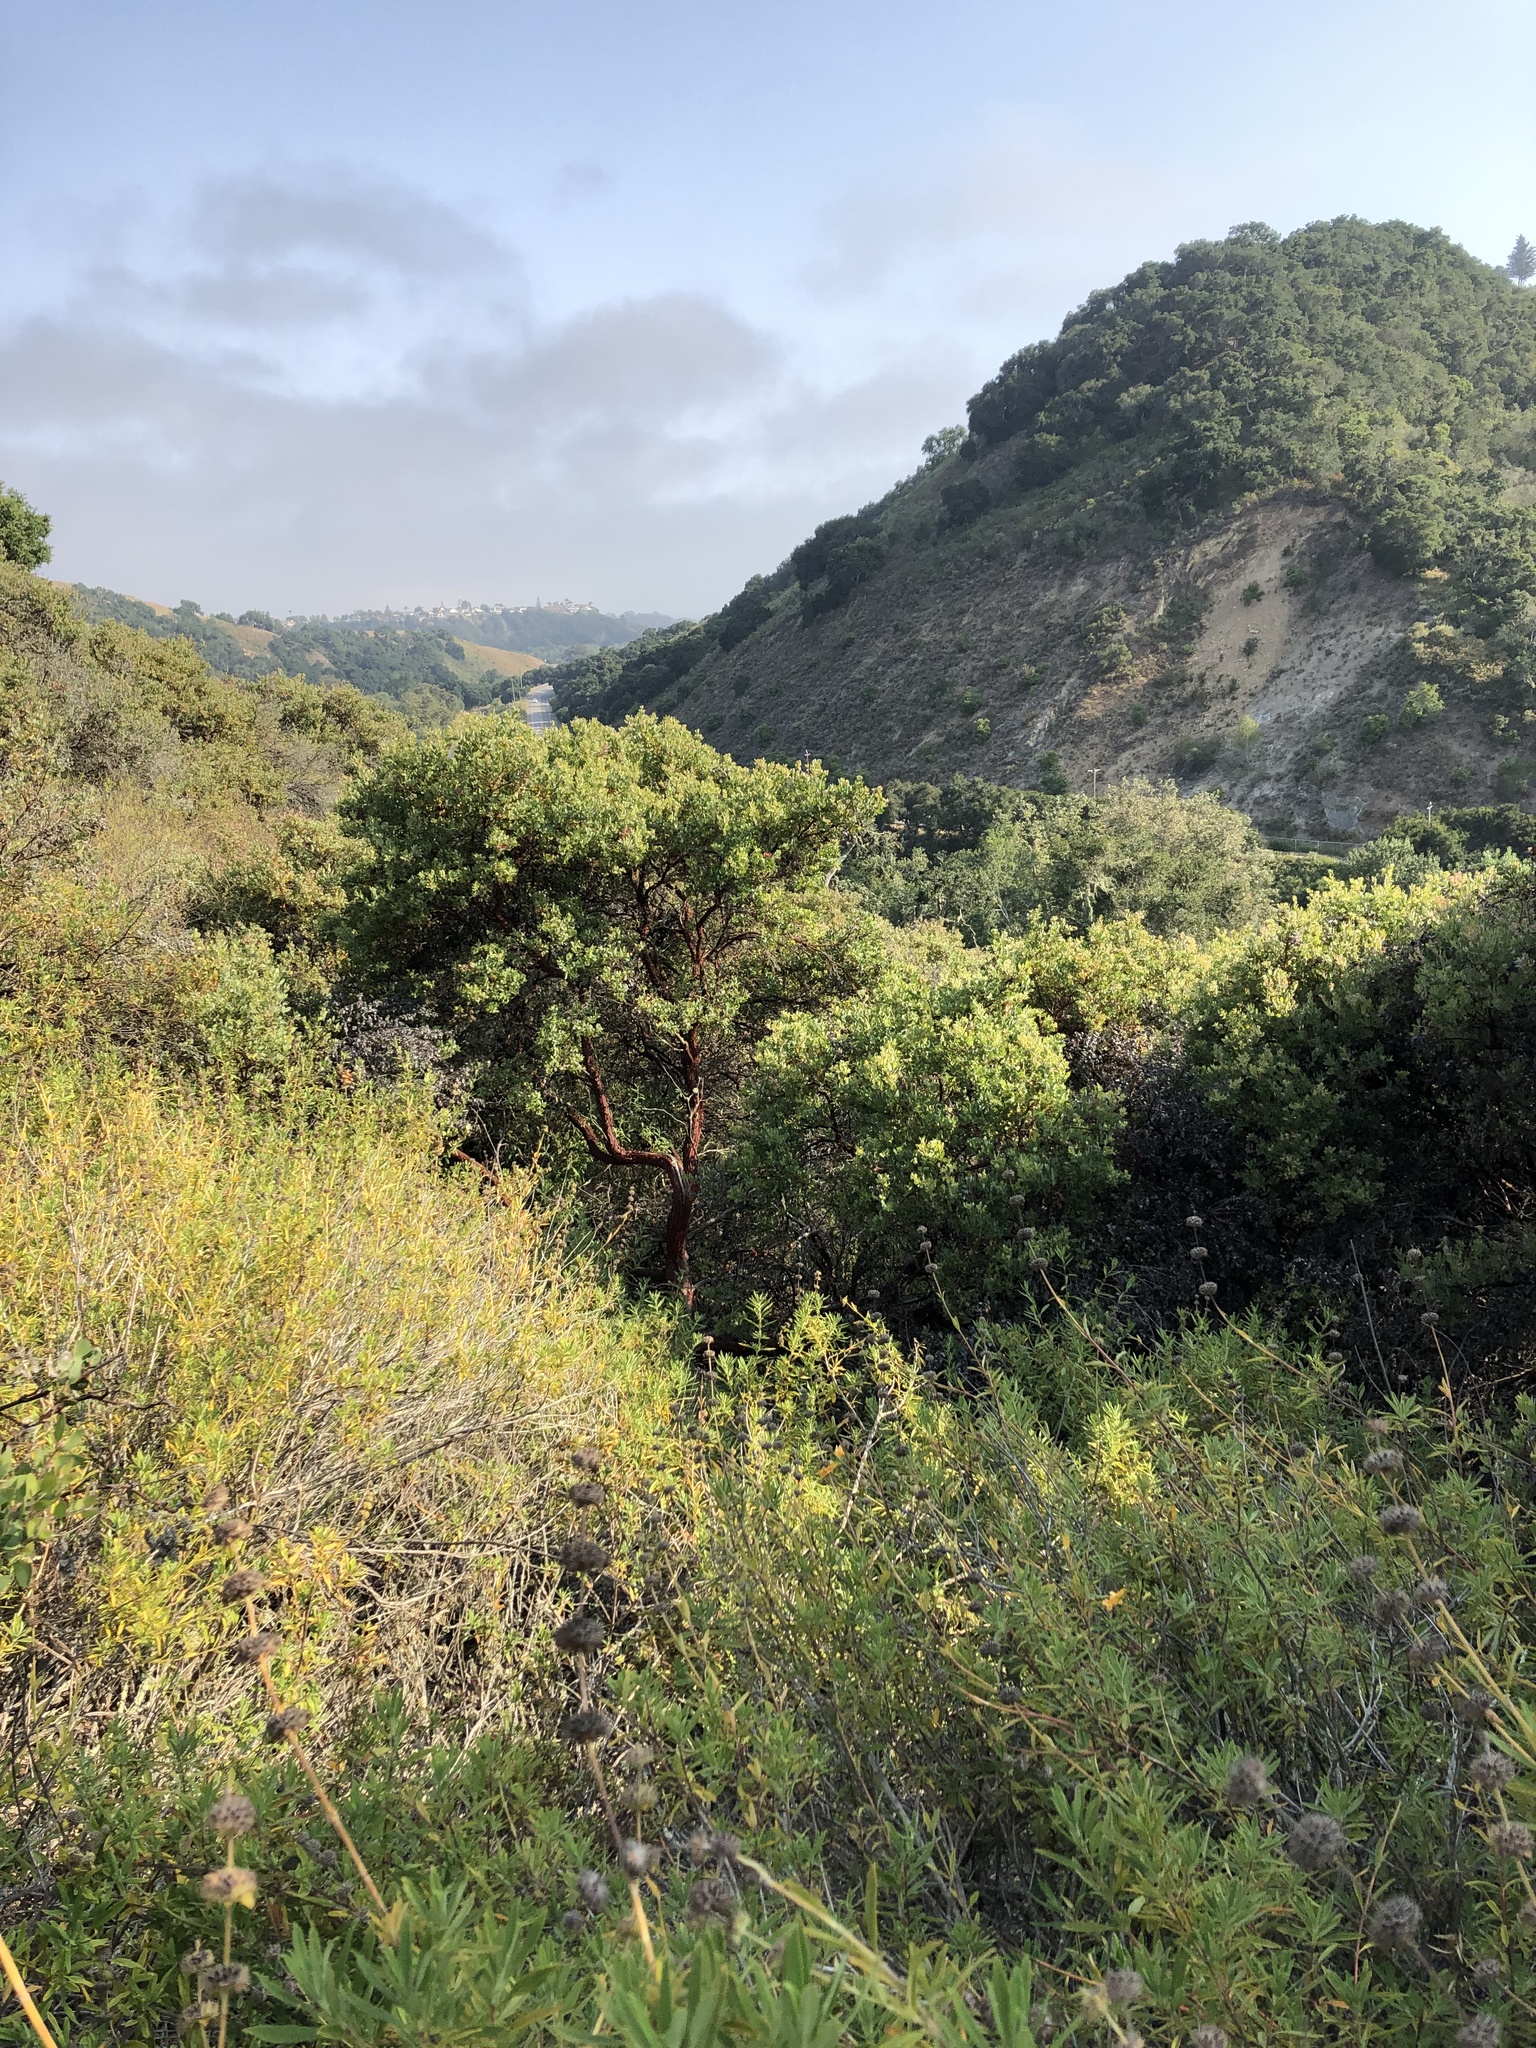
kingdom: Plantae
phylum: Tracheophyta
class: Magnoliopsida
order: Ericales
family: Ericaceae
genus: Arctostaphylos
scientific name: Arctostaphylos pilosula
